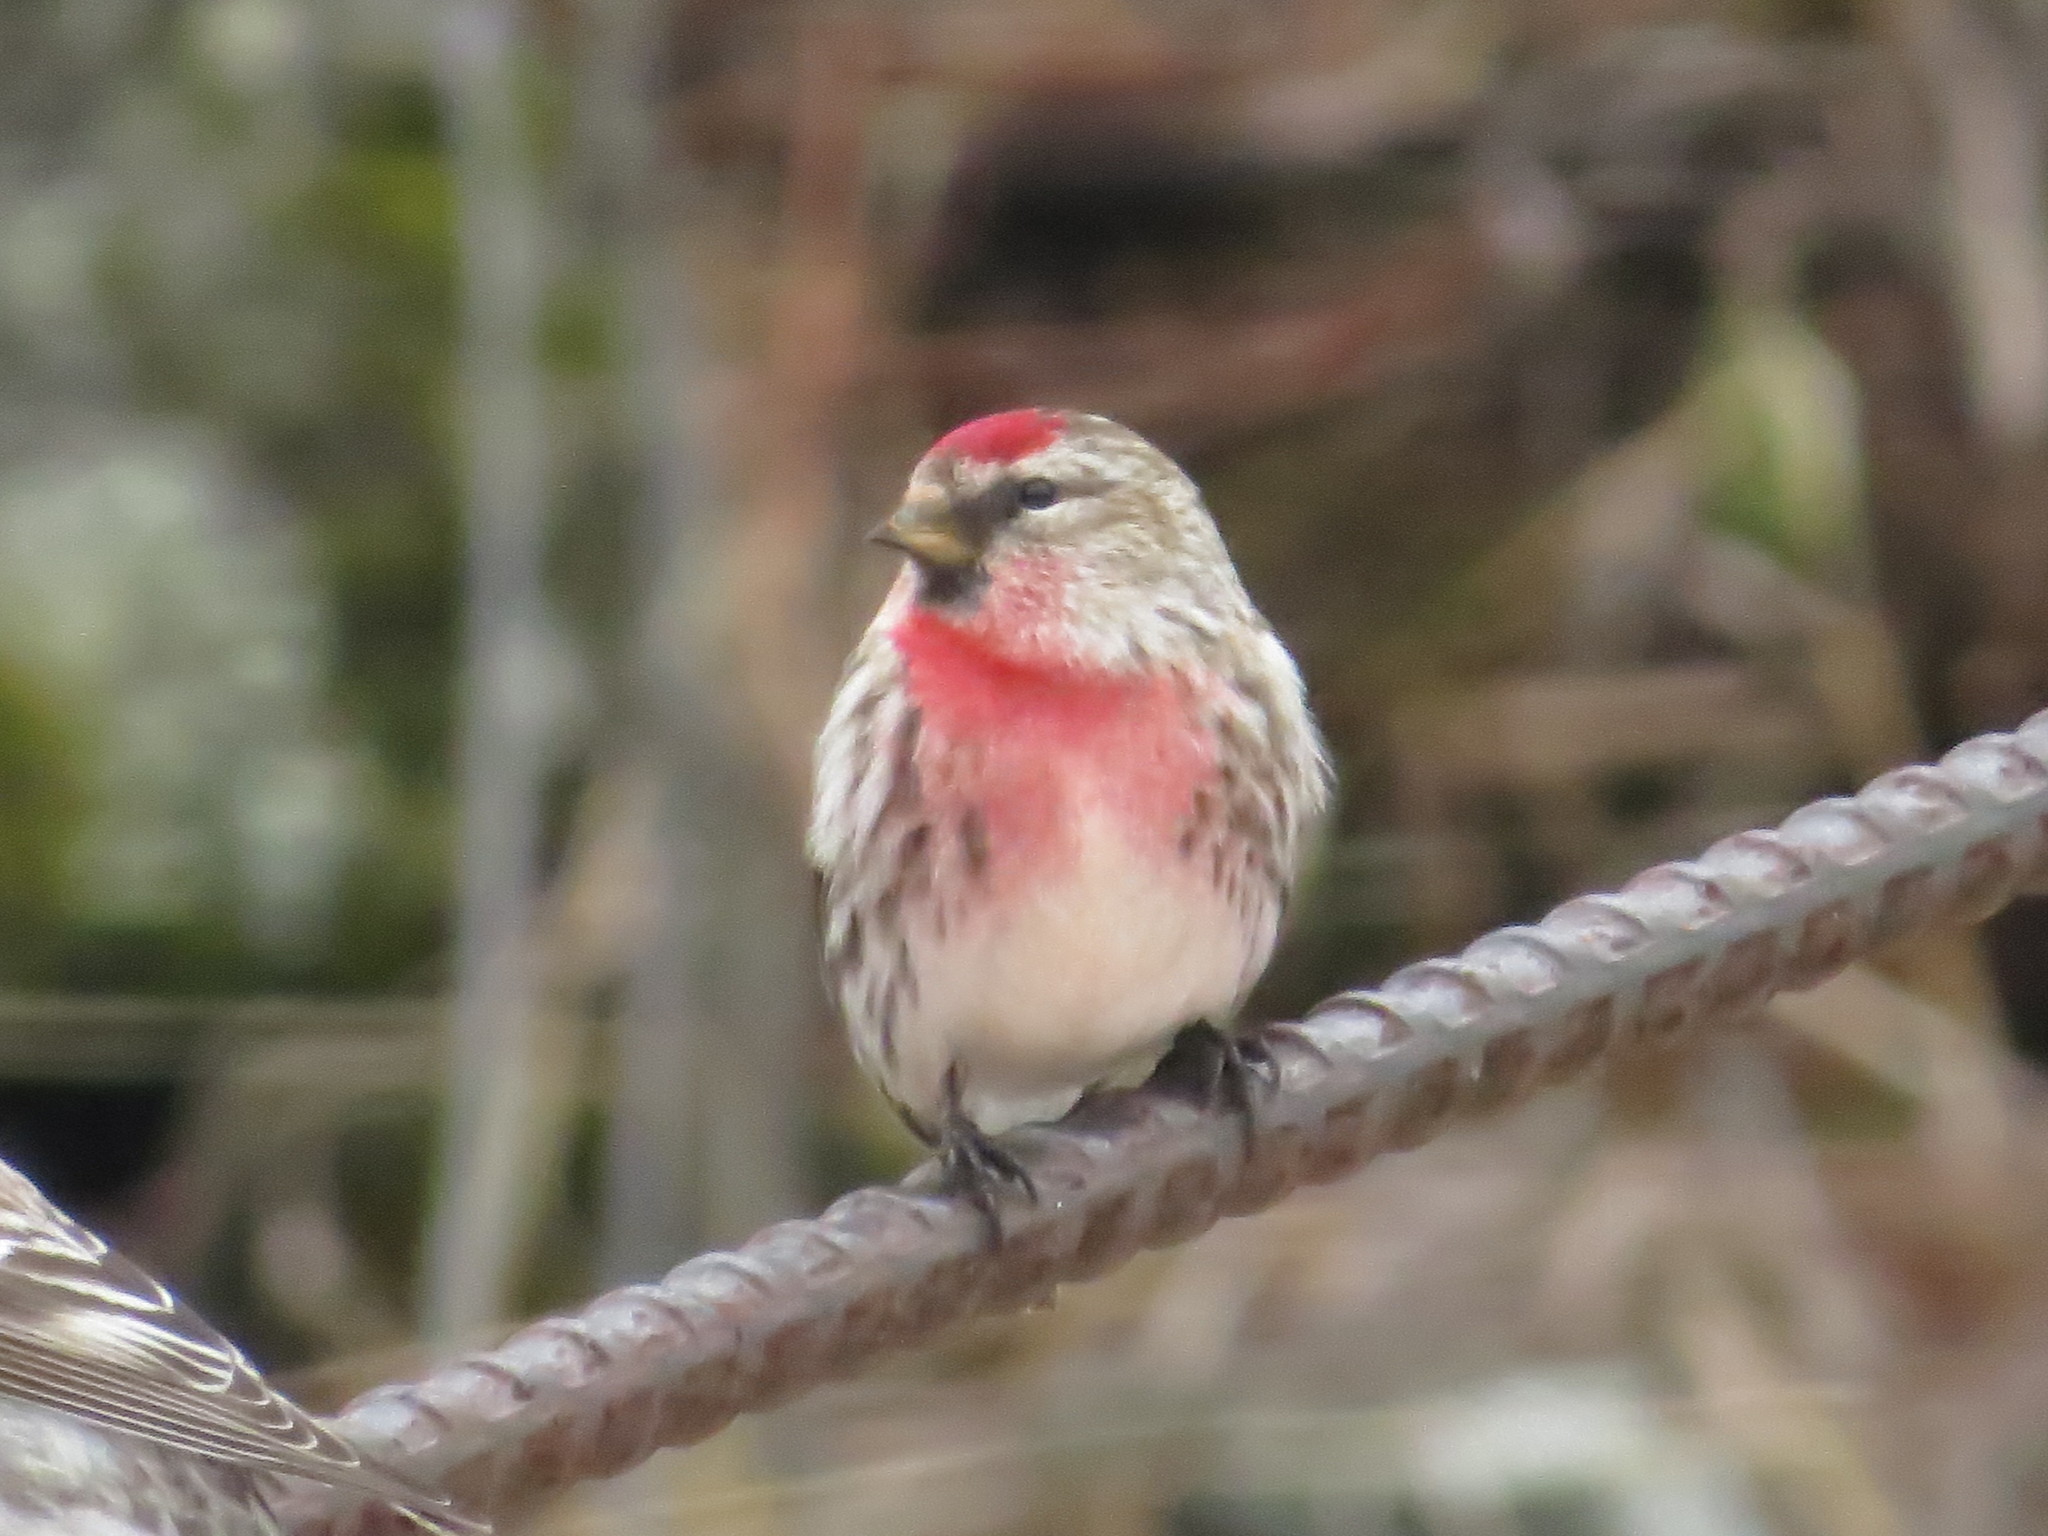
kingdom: Animalia
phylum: Chordata
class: Aves
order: Passeriformes
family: Fringillidae
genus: Acanthis
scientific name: Acanthis flammea
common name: Common redpoll
